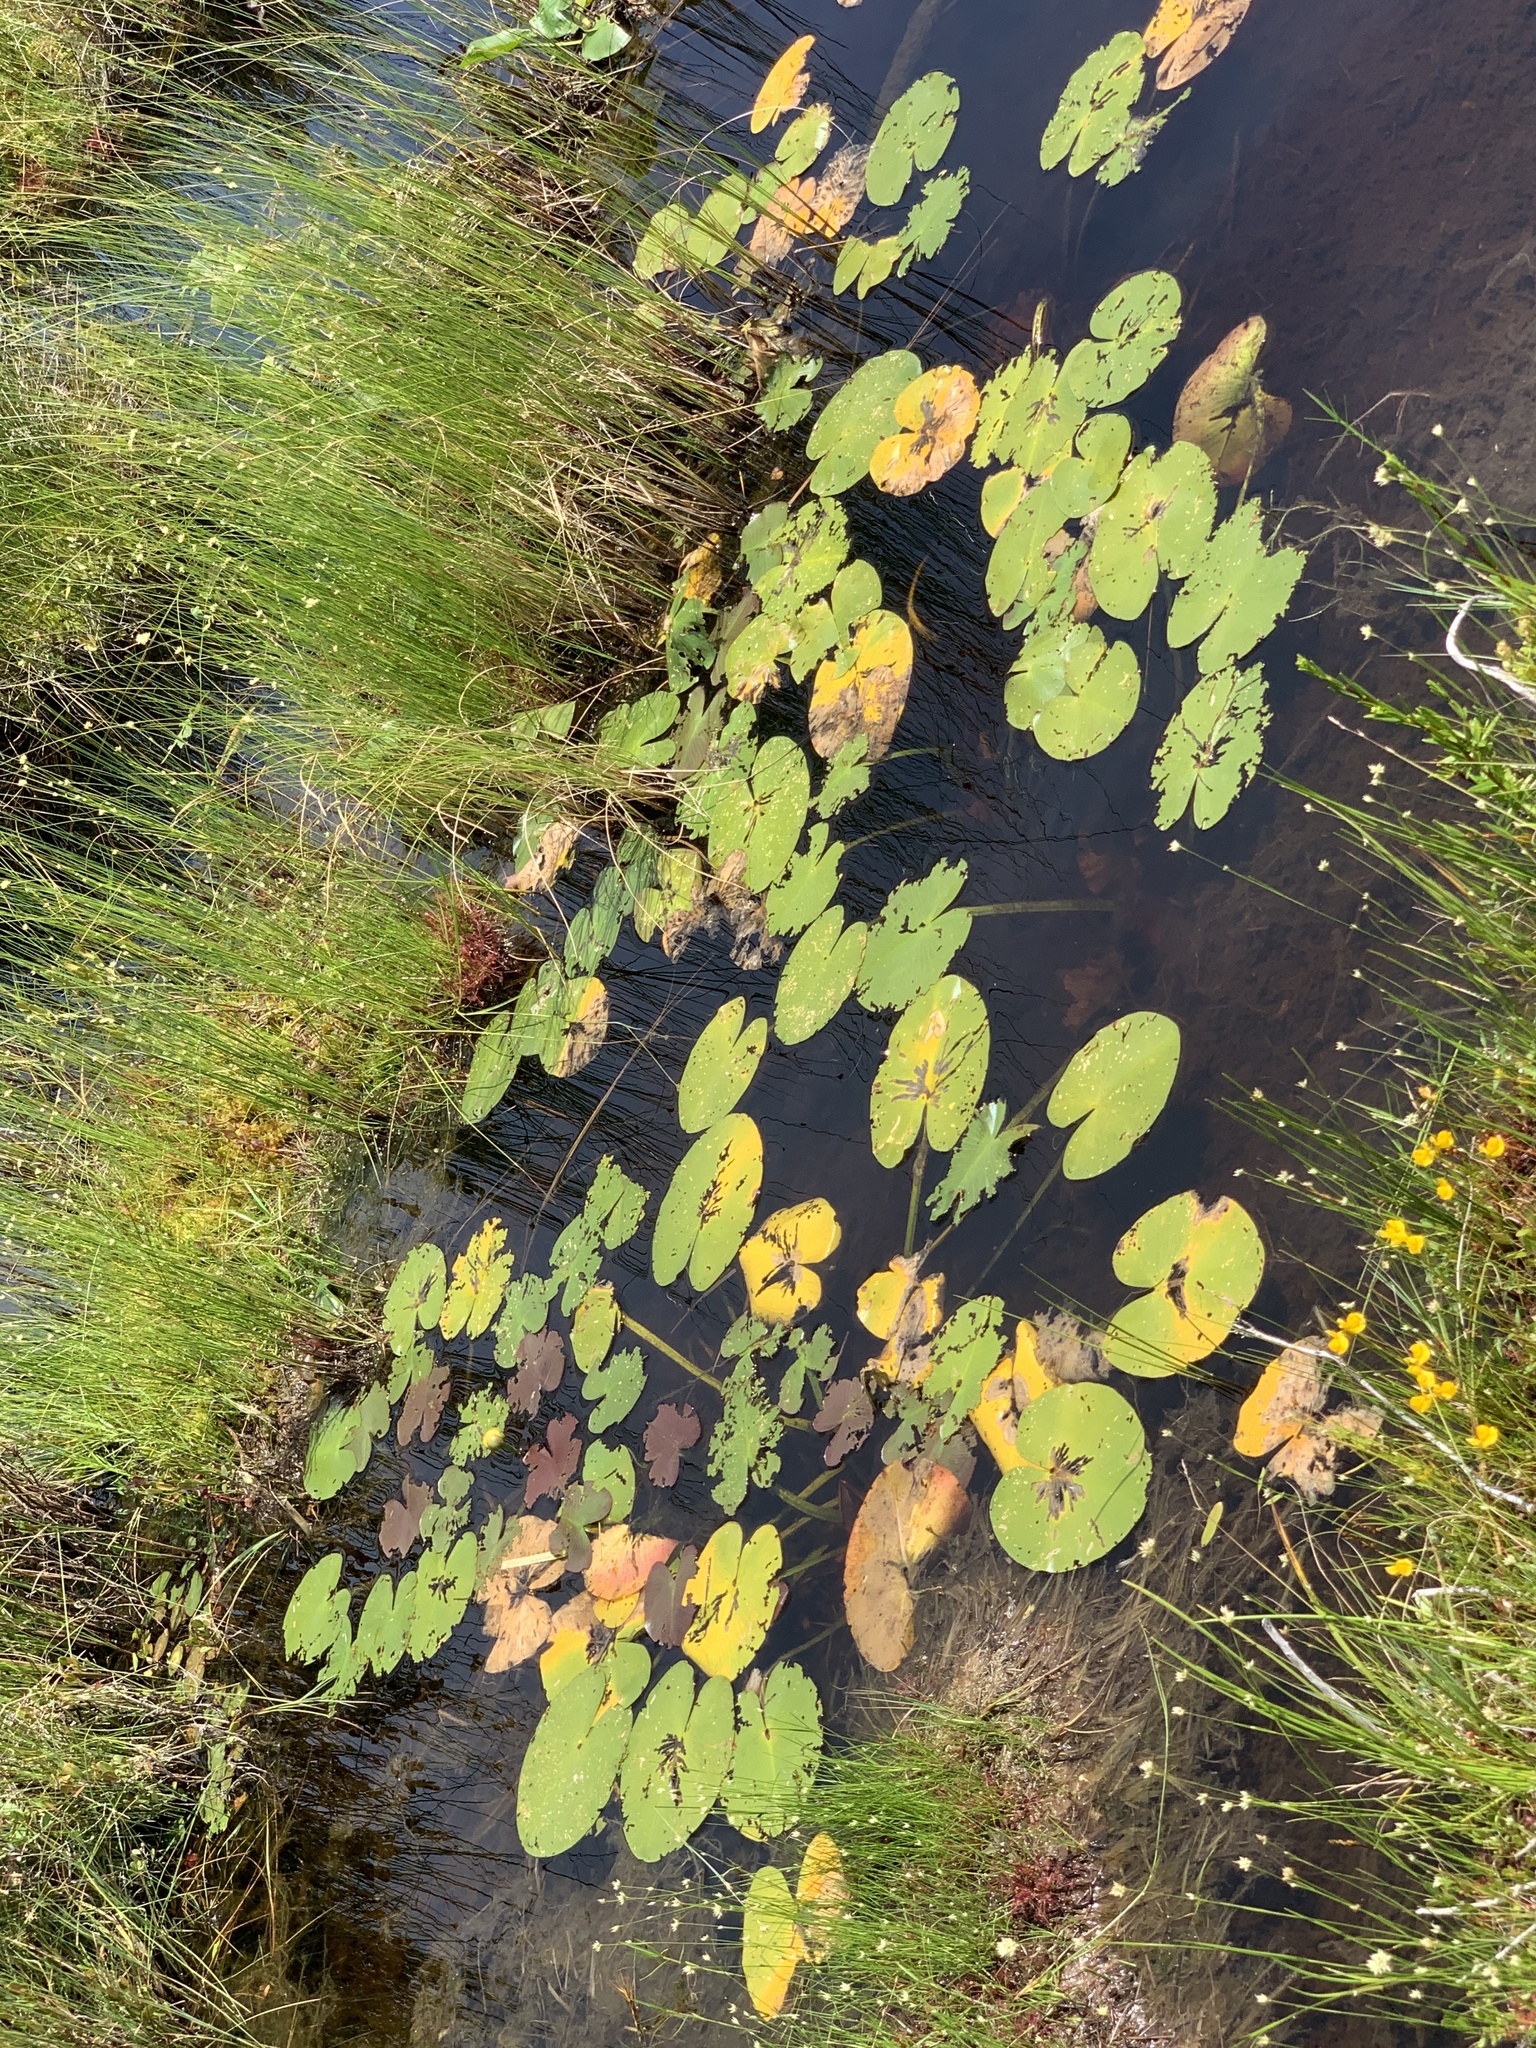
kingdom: Plantae
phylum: Tracheophyta
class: Magnoliopsida
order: Nymphaeales
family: Nymphaeaceae
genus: Nuphar
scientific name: Nuphar variegata
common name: Beaver-root
